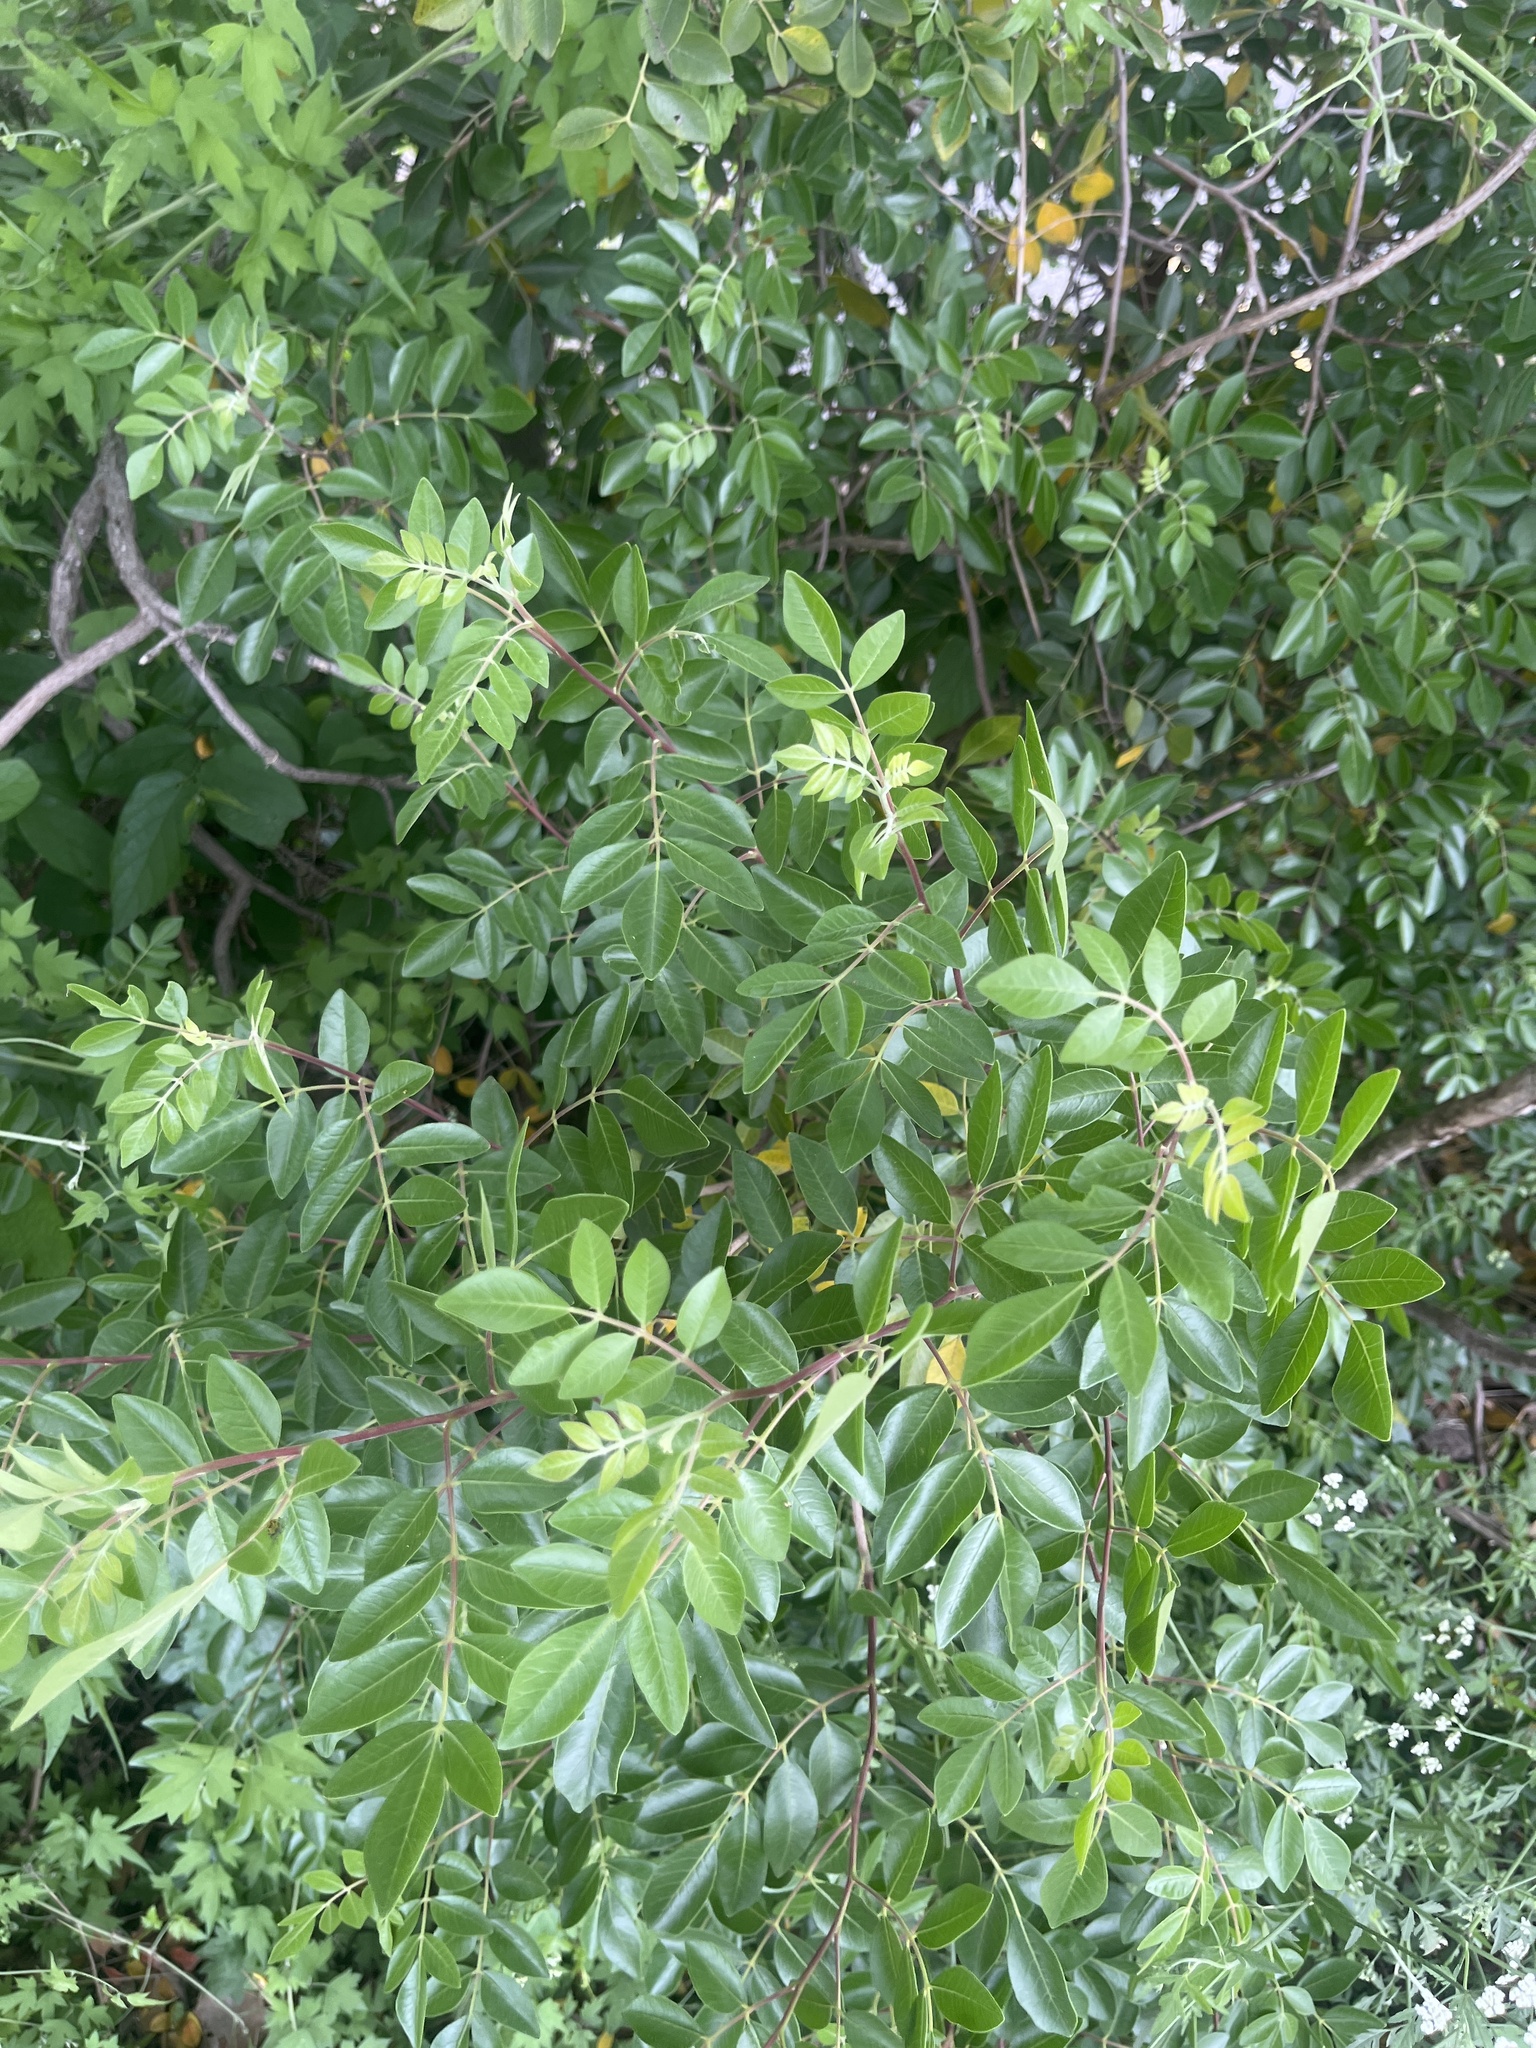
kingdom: Plantae
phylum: Tracheophyta
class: Magnoliopsida
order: Sapindales
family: Anacardiaceae
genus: Rhus
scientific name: Rhus virens
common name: Evergreen sumac
